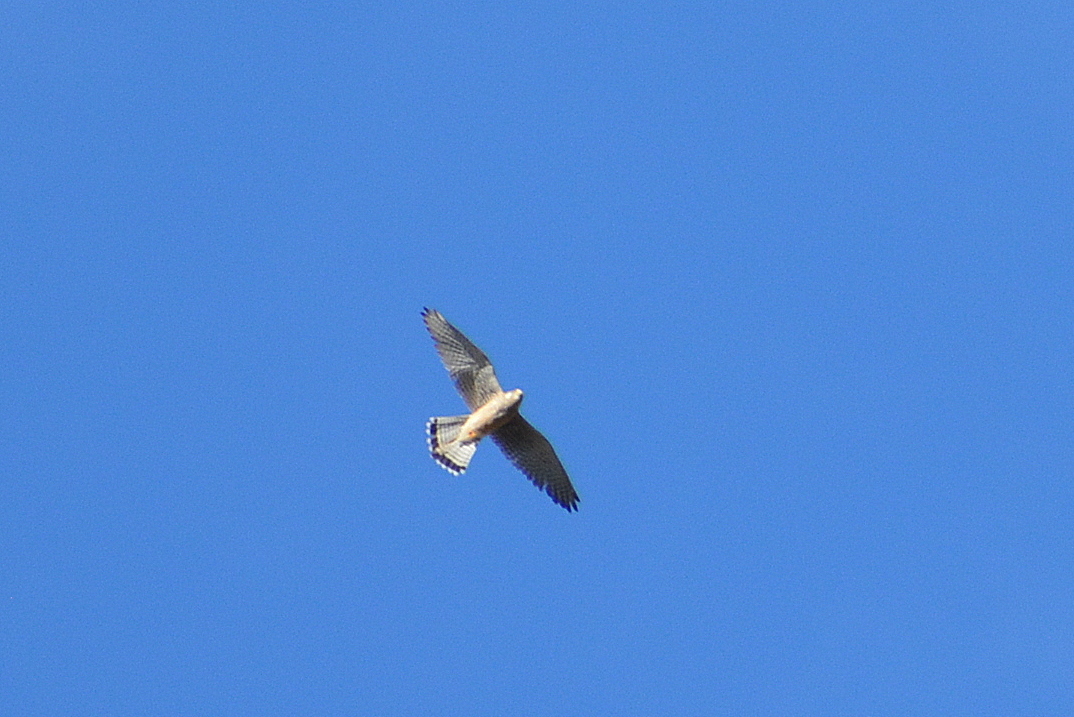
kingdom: Animalia
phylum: Chordata
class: Aves
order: Falconiformes
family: Falconidae
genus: Falco
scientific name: Falco tinnunculus
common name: Common kestrel
